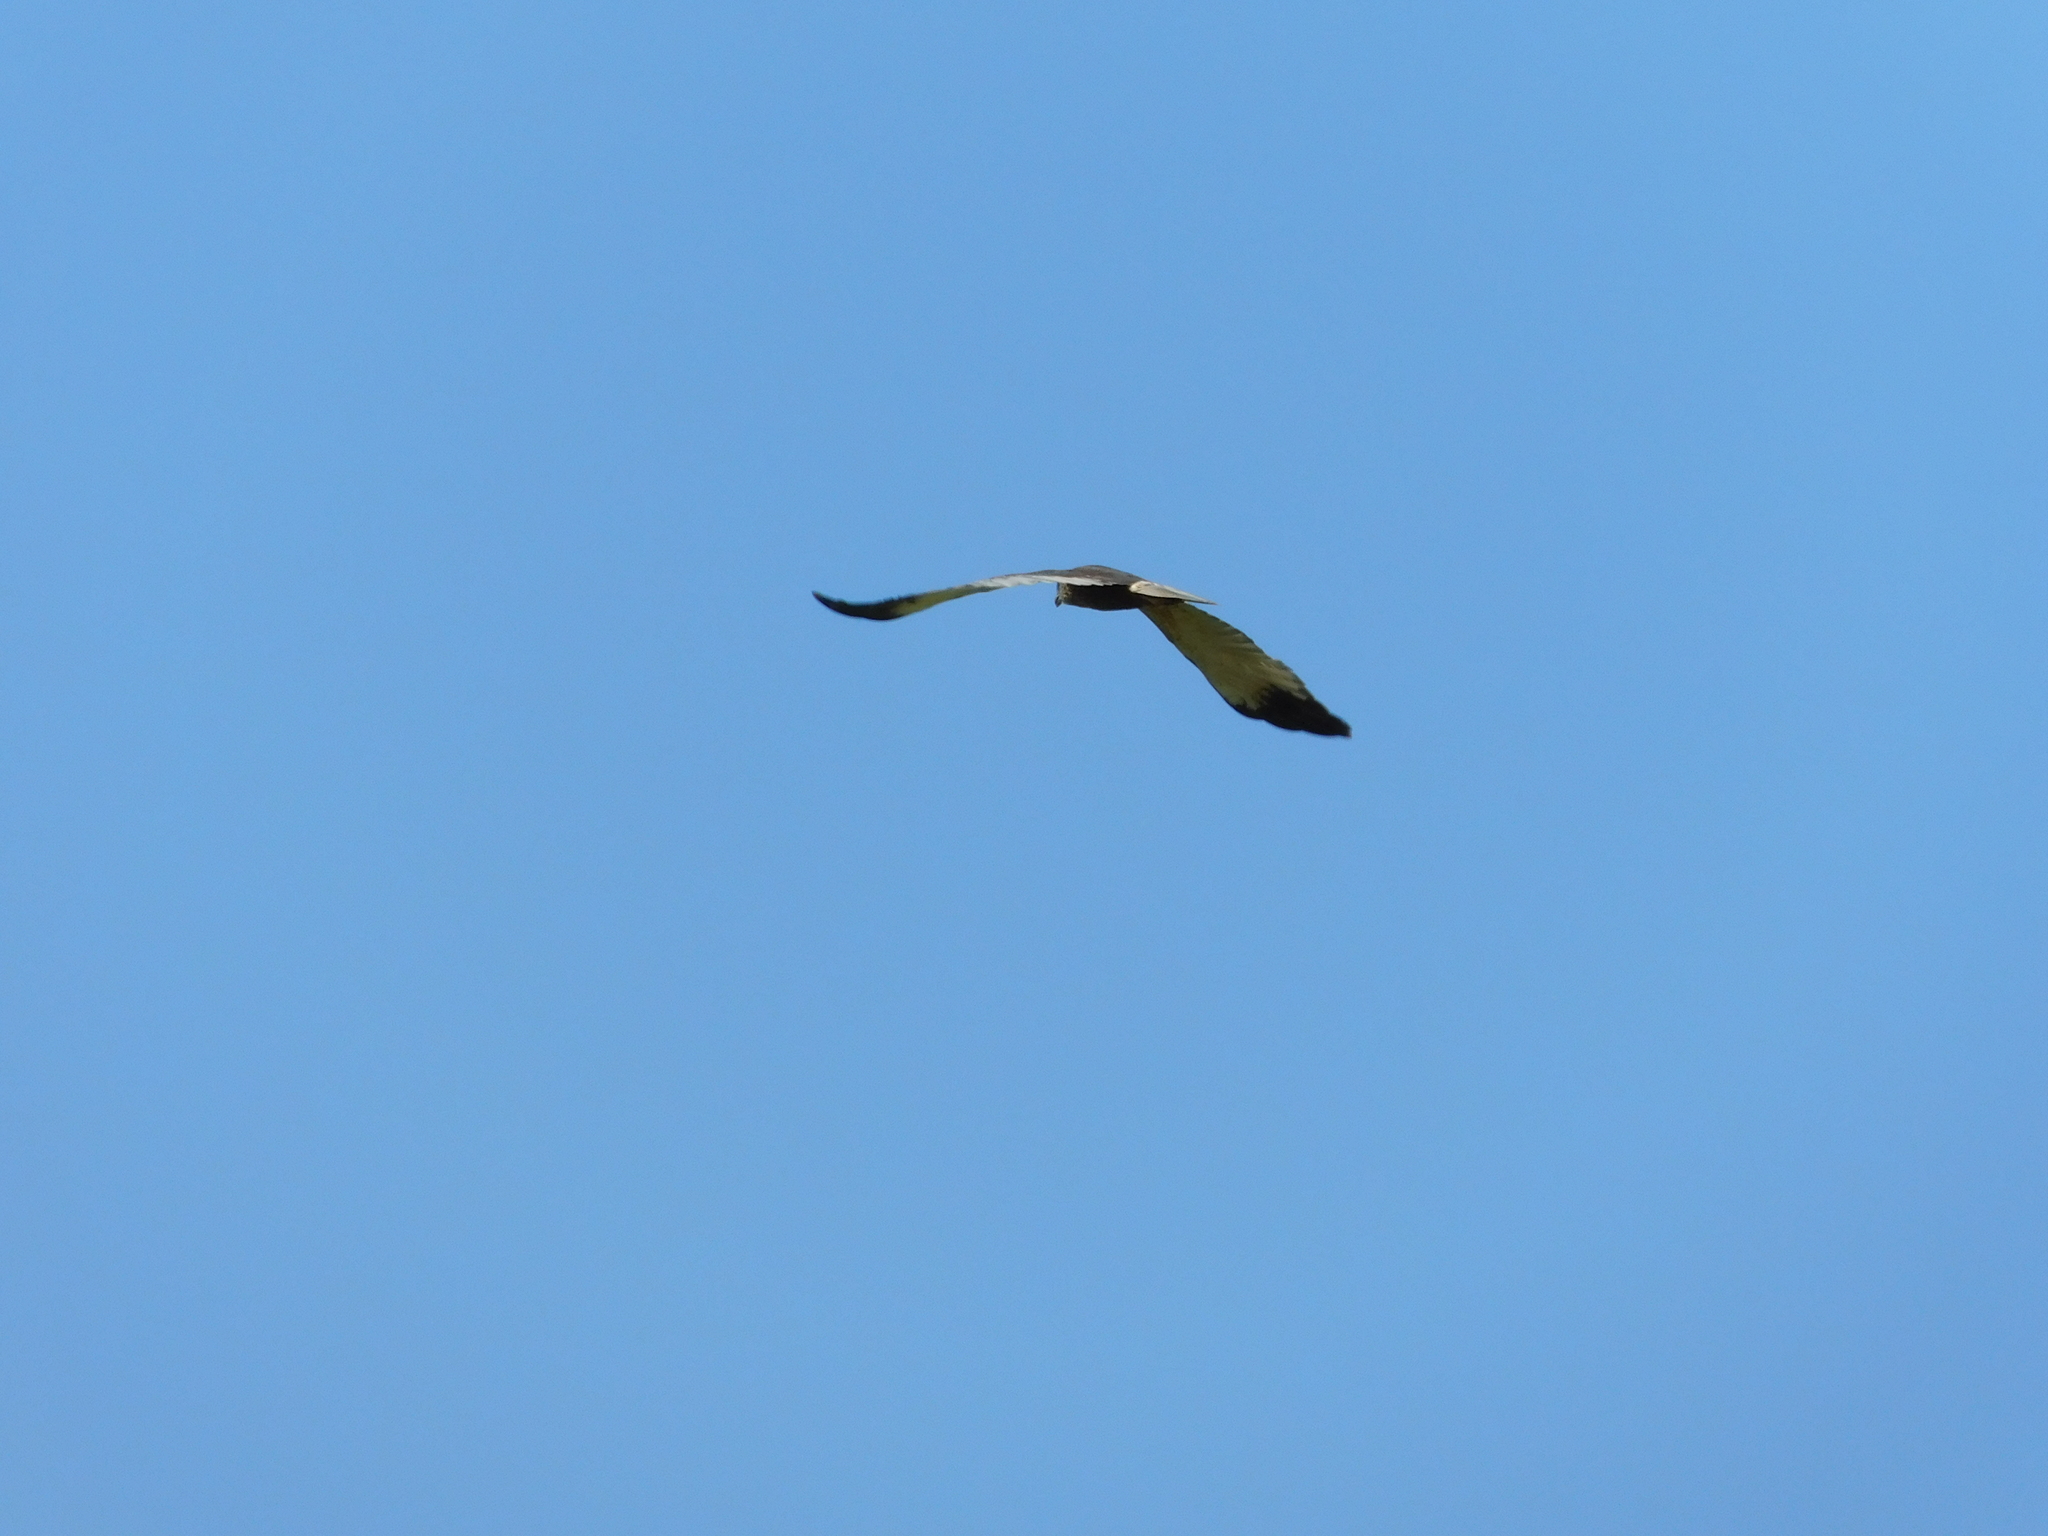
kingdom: Animalia
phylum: Chordata
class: Aves
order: Accipitriformes
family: Accipitridae
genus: Circus
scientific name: Circus aeruginosus
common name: Western marsh harrier
